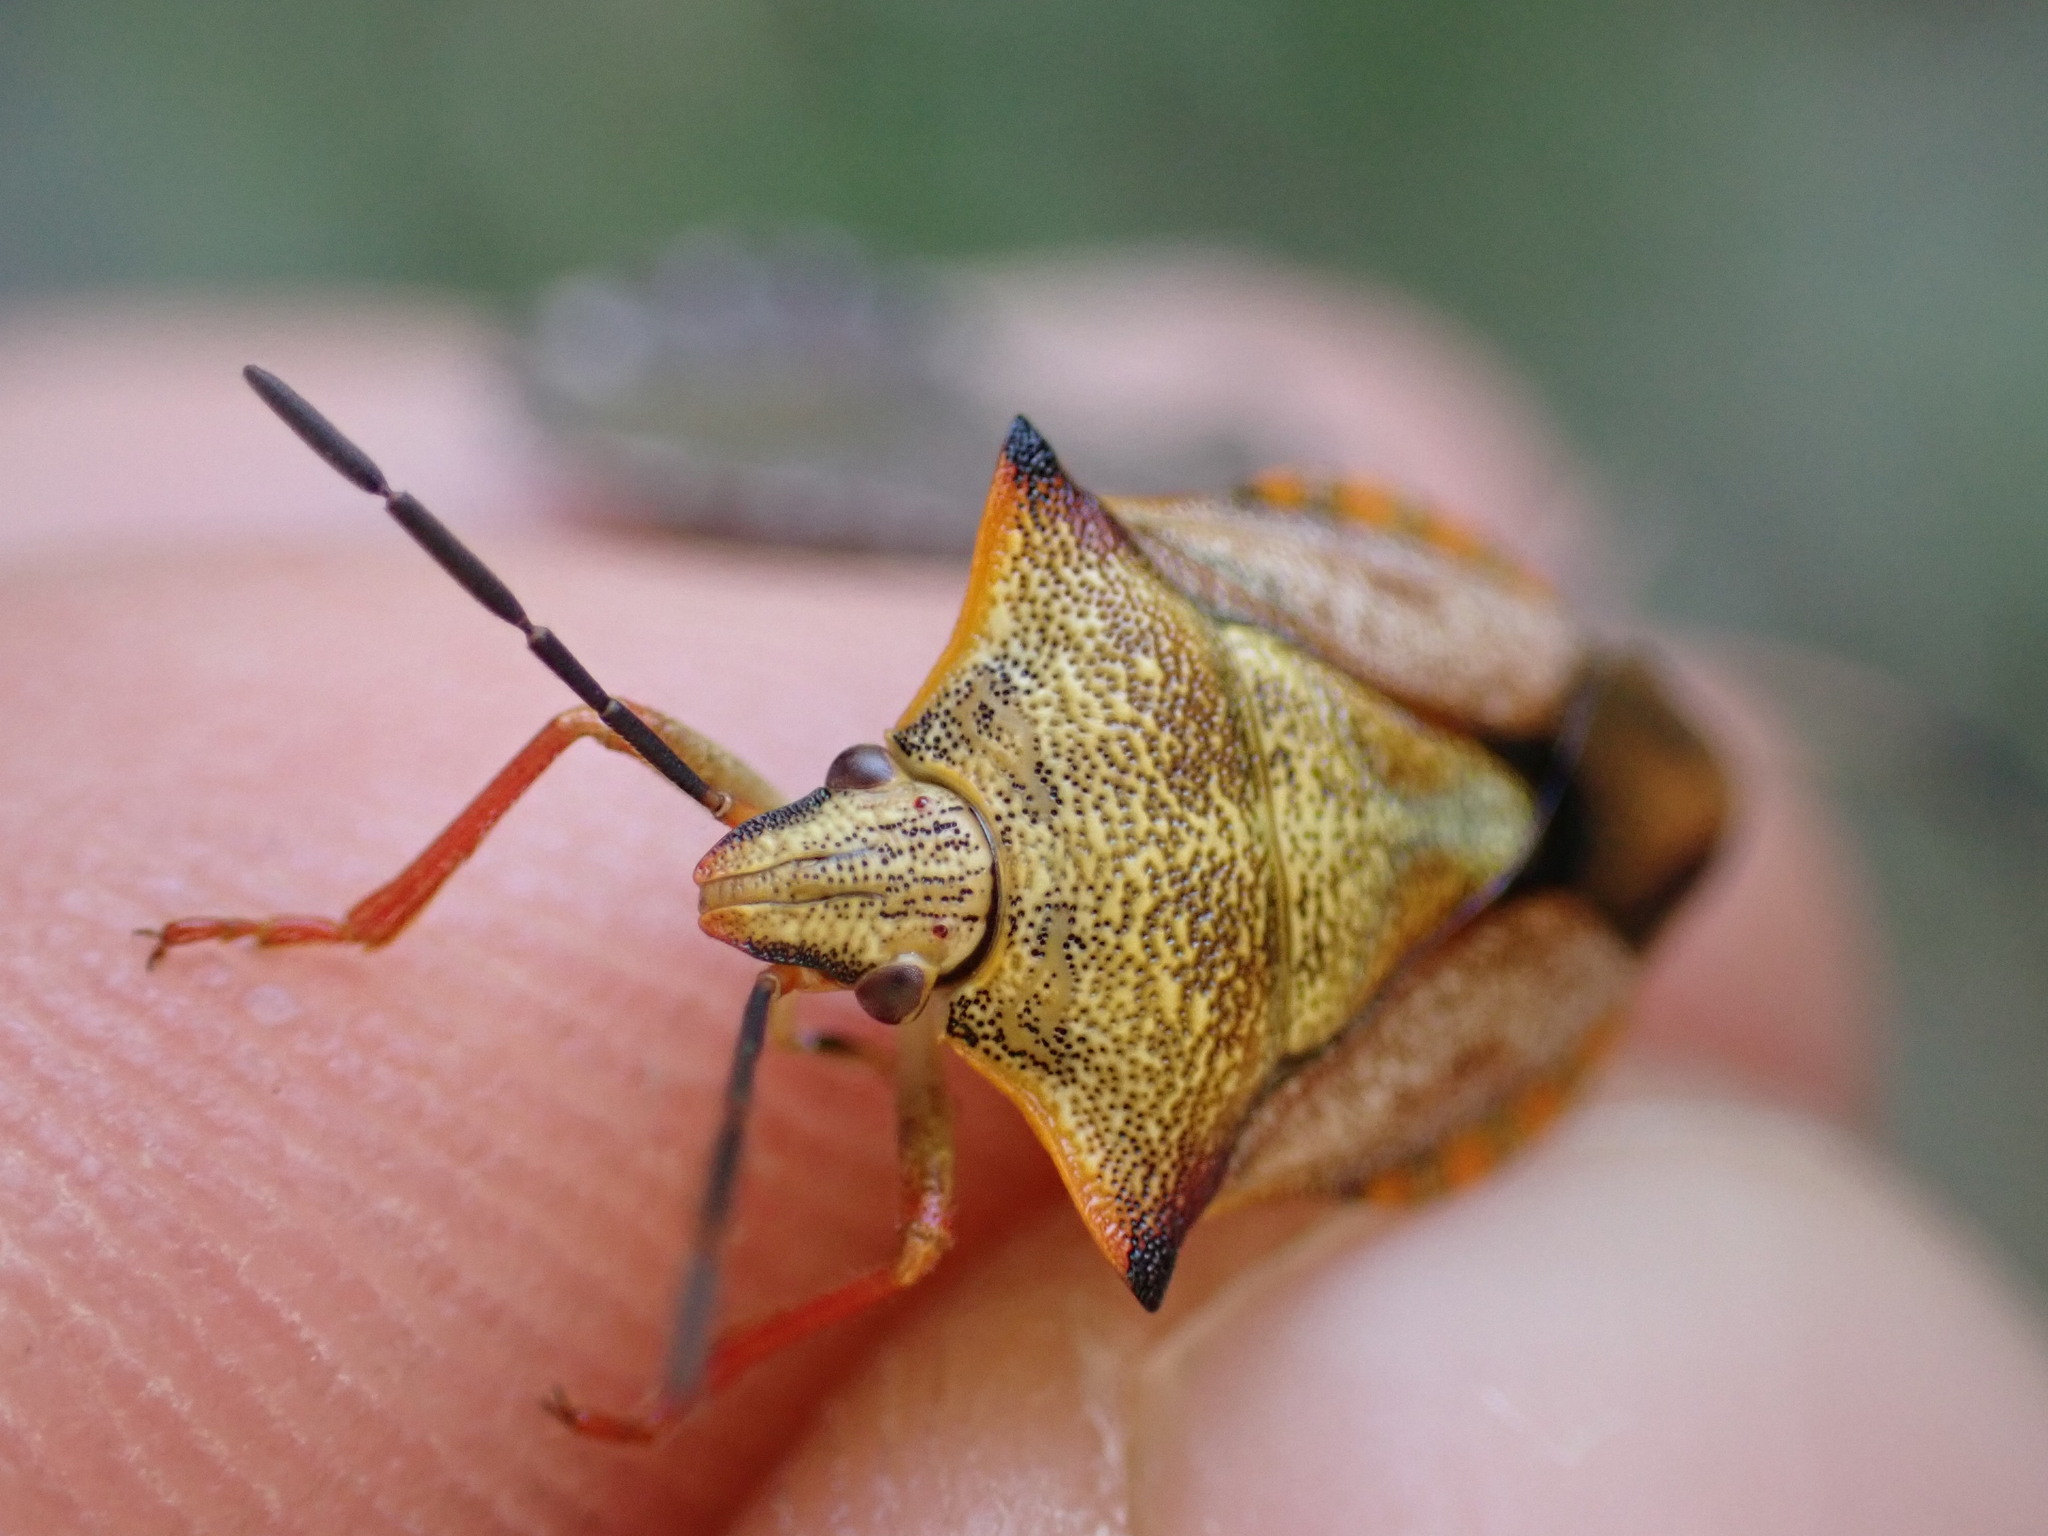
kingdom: Animalia
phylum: Arthropoda
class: Insecta
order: Hemiptera
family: Pentatomidae
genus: Carpocoris
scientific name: Carpocoris mediterraneus
